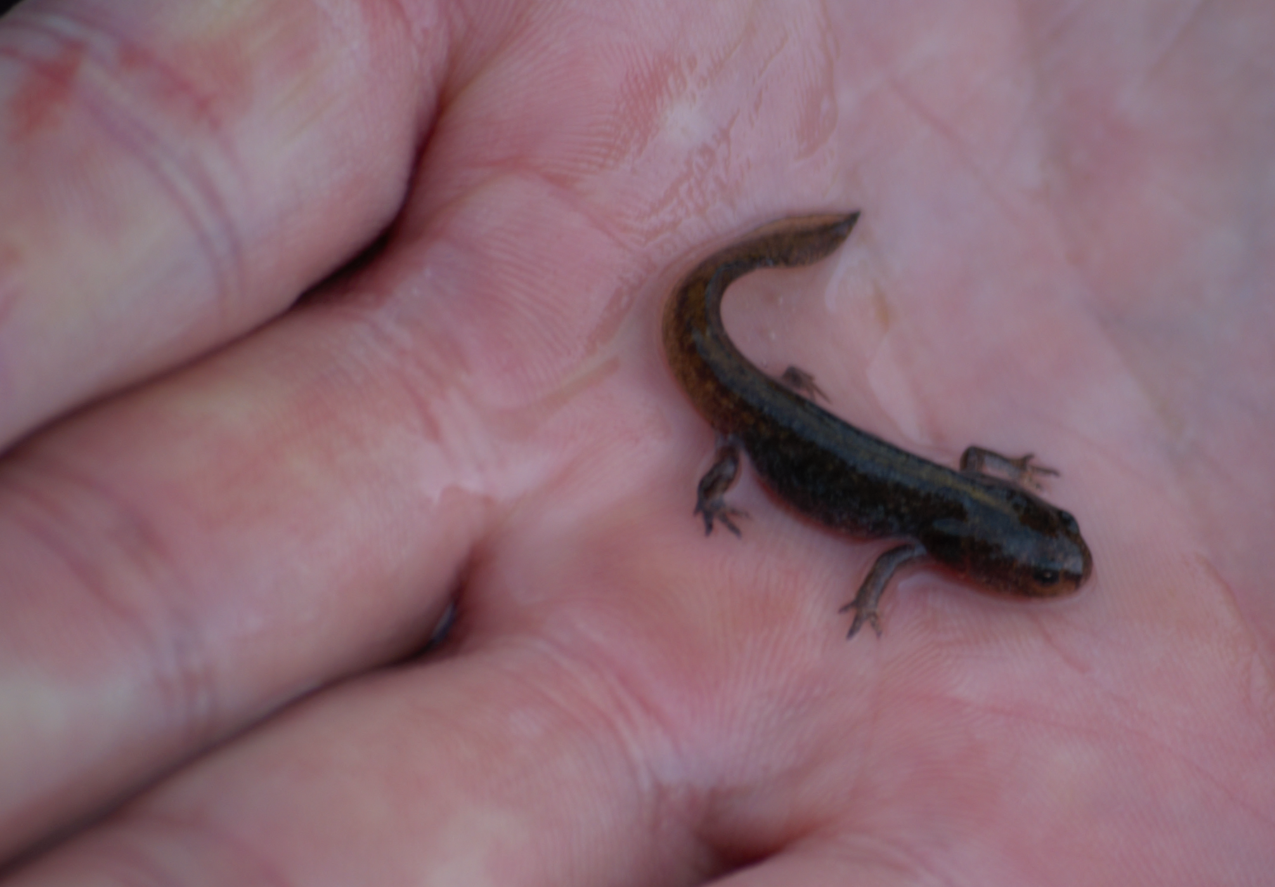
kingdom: Animalia
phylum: Chordata
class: Amphibia
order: Caudata
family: Salamandridae
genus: Lissotriton
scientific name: Lissotriton montandoni
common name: Carpathian newt
